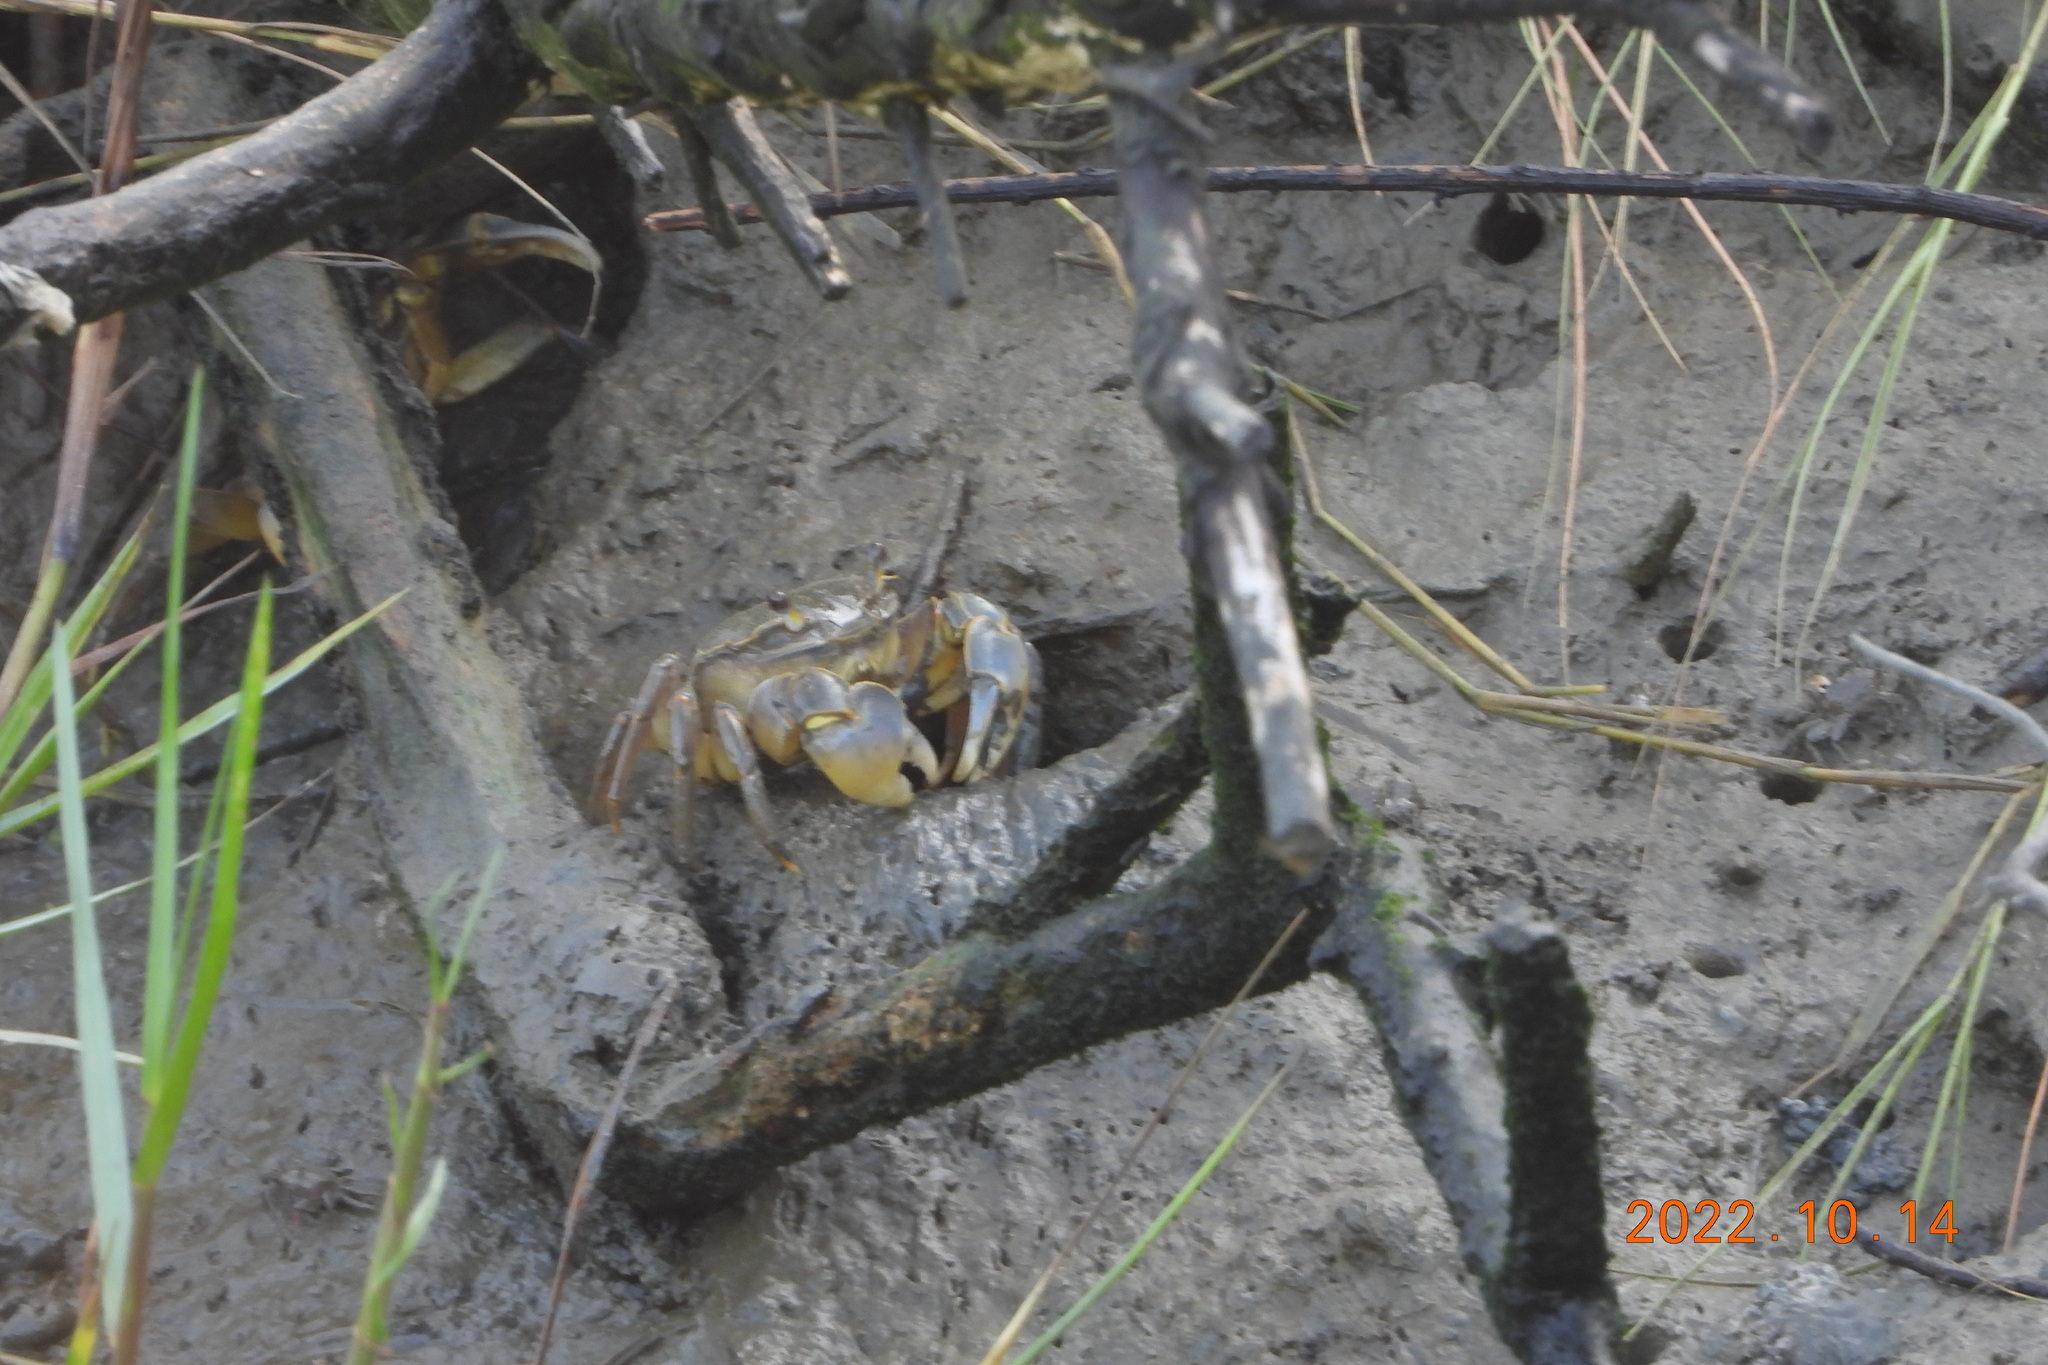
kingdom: Animalia
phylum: Arthropoda
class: Malacostraca
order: Decapoda
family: Varunidae
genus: Helice
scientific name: Helice formosensis
